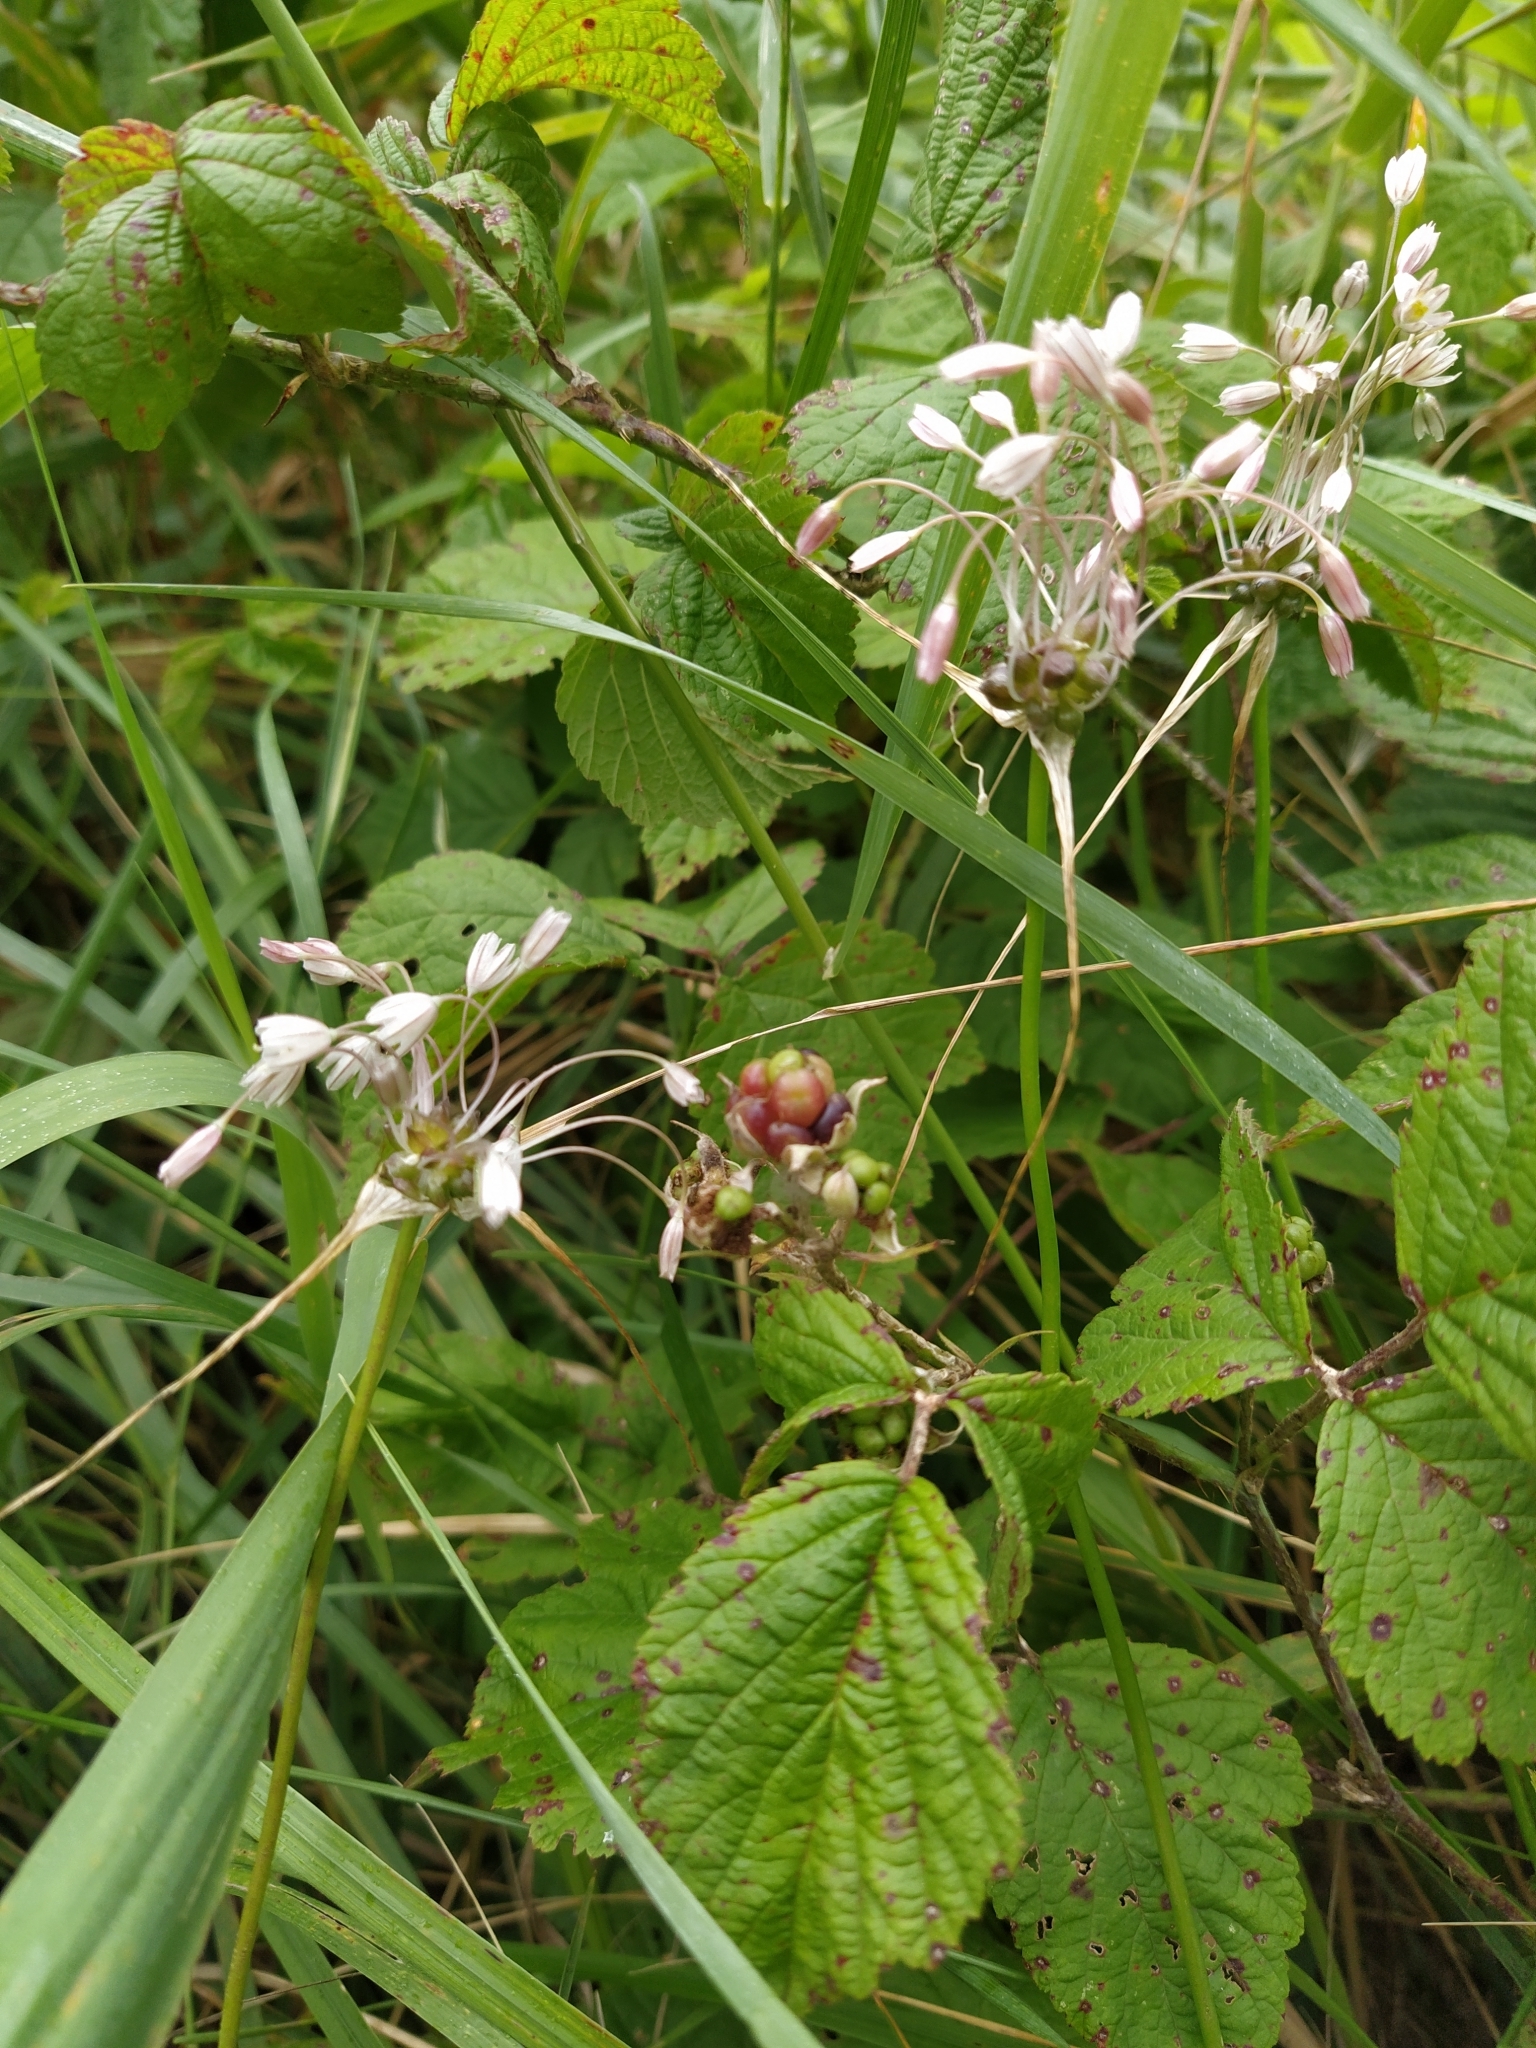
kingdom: Plantae
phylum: Tracheophyta
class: Liliopsida
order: Asparagales
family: Amaryllidaceae
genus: Allium
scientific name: Allium oleraceum
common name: Field garlic
